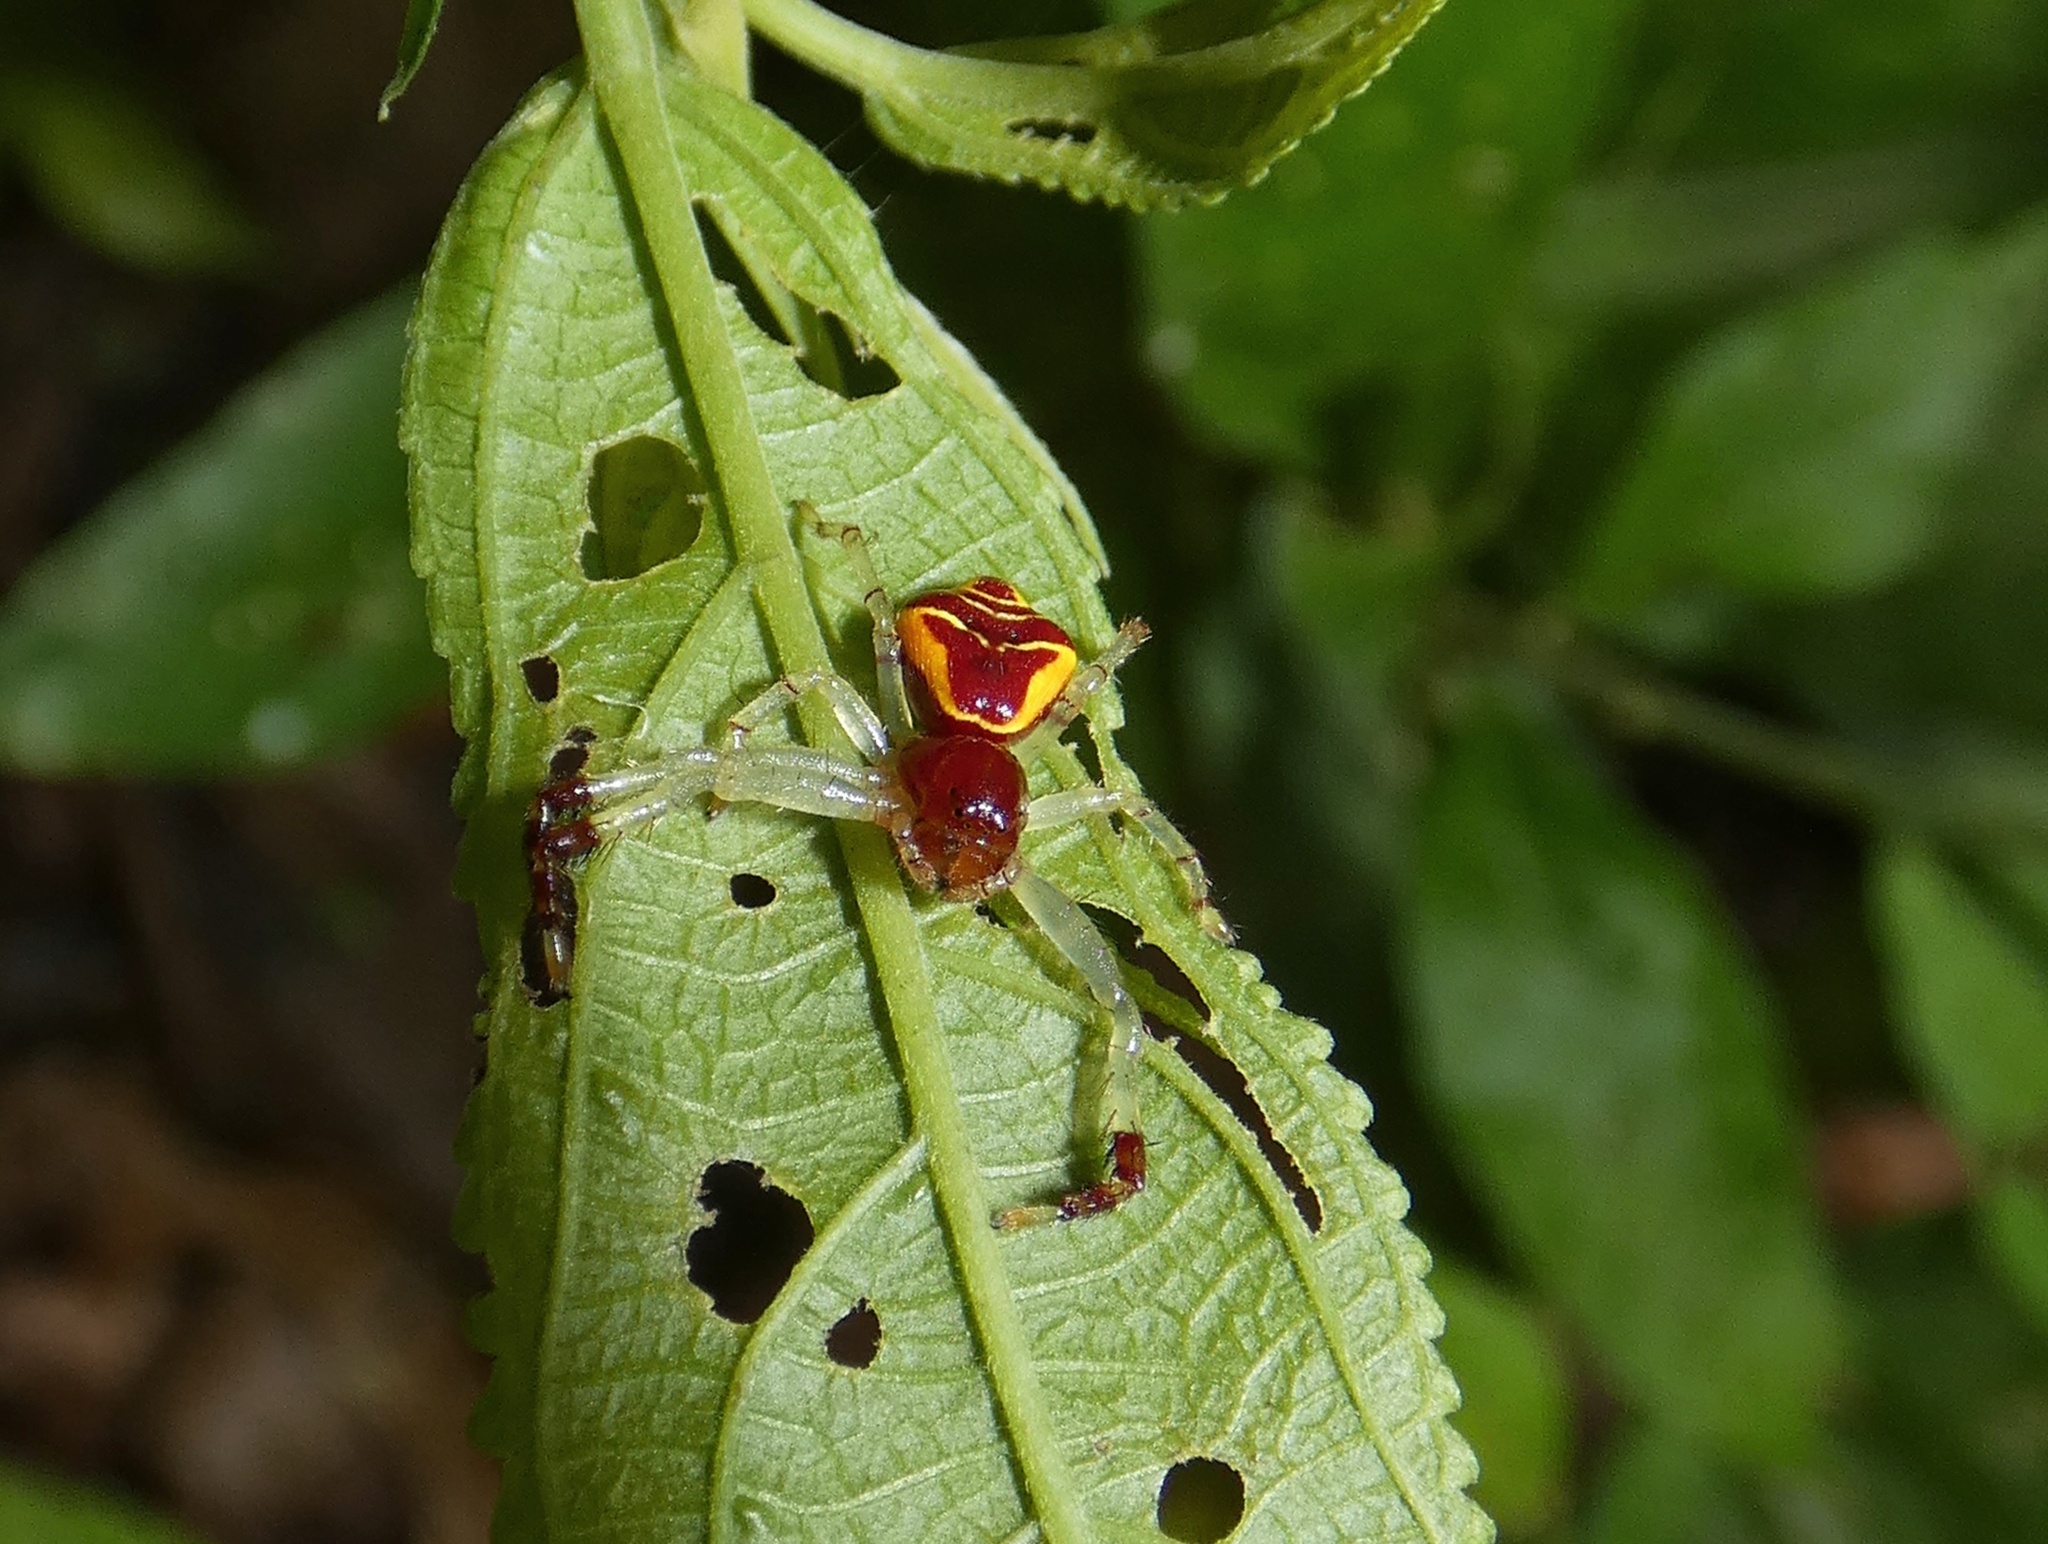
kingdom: Animalia
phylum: Arthropoda
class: Arachnida
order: Araneae
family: Thomisidae
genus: Stephanopoides
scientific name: Stephanopoides brasiliana
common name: Crab spiders
